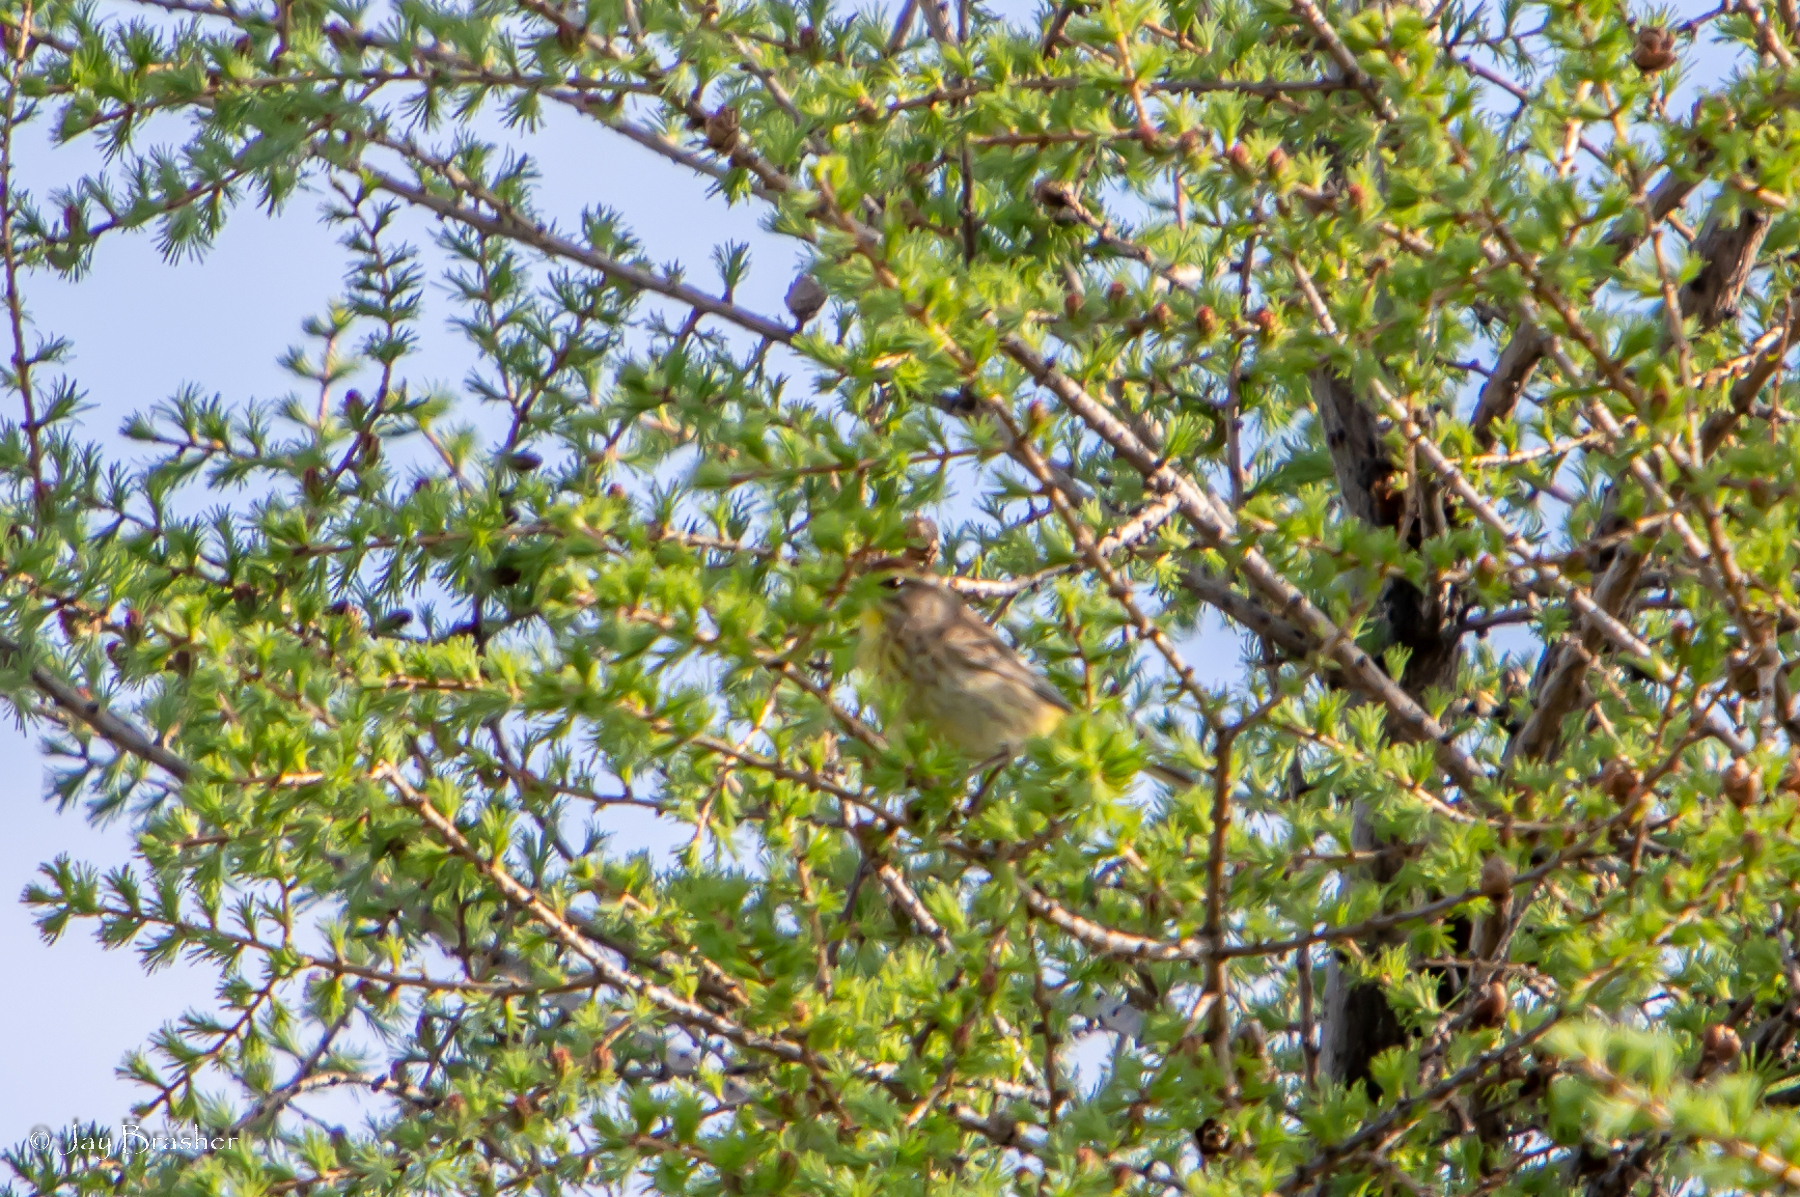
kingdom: Animalia
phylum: Chordata
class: Aves
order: Passeriformes
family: Parulidae
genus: Setophaga
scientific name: Setophaga palmarum
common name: Palm warbler
